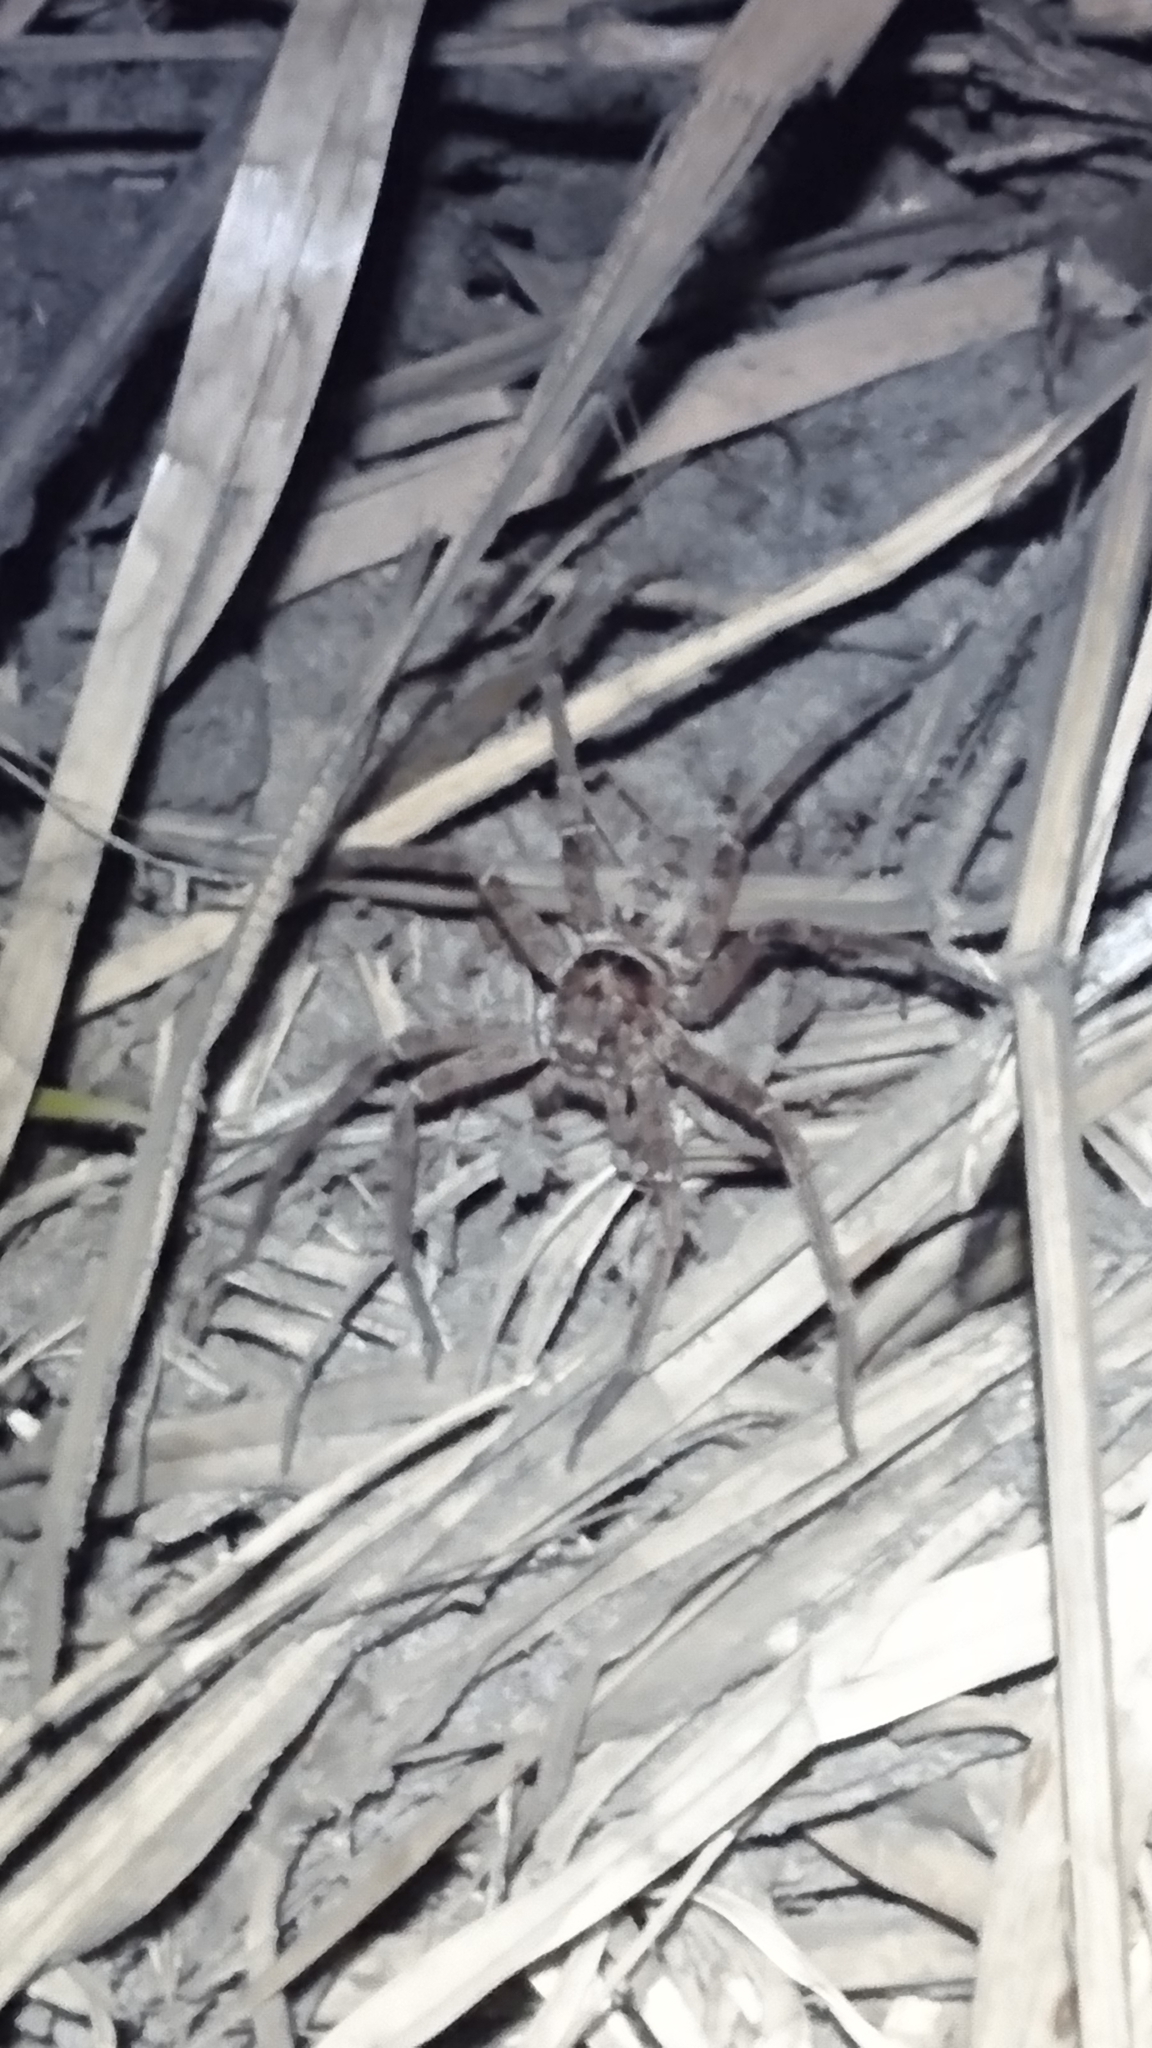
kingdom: Animalia
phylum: Arthropoda
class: Arachnida
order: Araneae
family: Sparassidae
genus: Heteropoda
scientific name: Heteropoda
